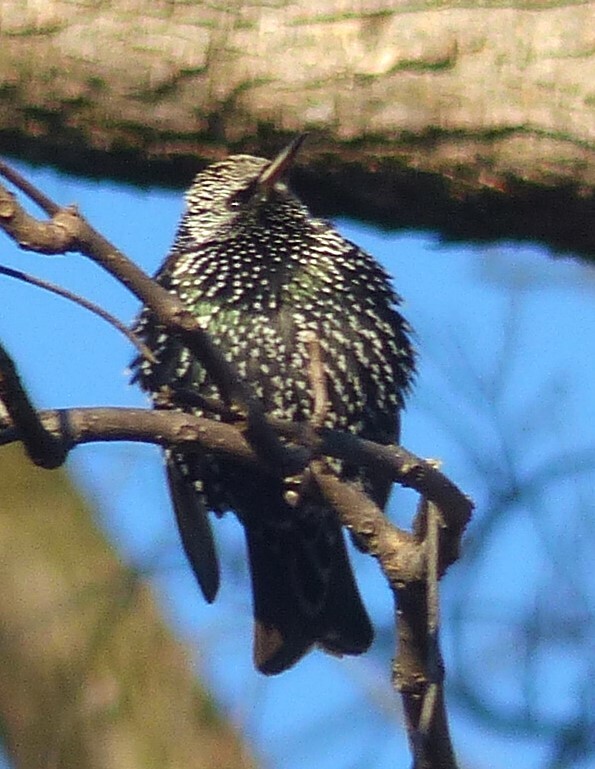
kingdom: Animalia
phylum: Chordata
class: Aves
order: Passeriformes
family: Sturnidae
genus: Sturnus
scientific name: Sturnus vulgaris
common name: Common starling
